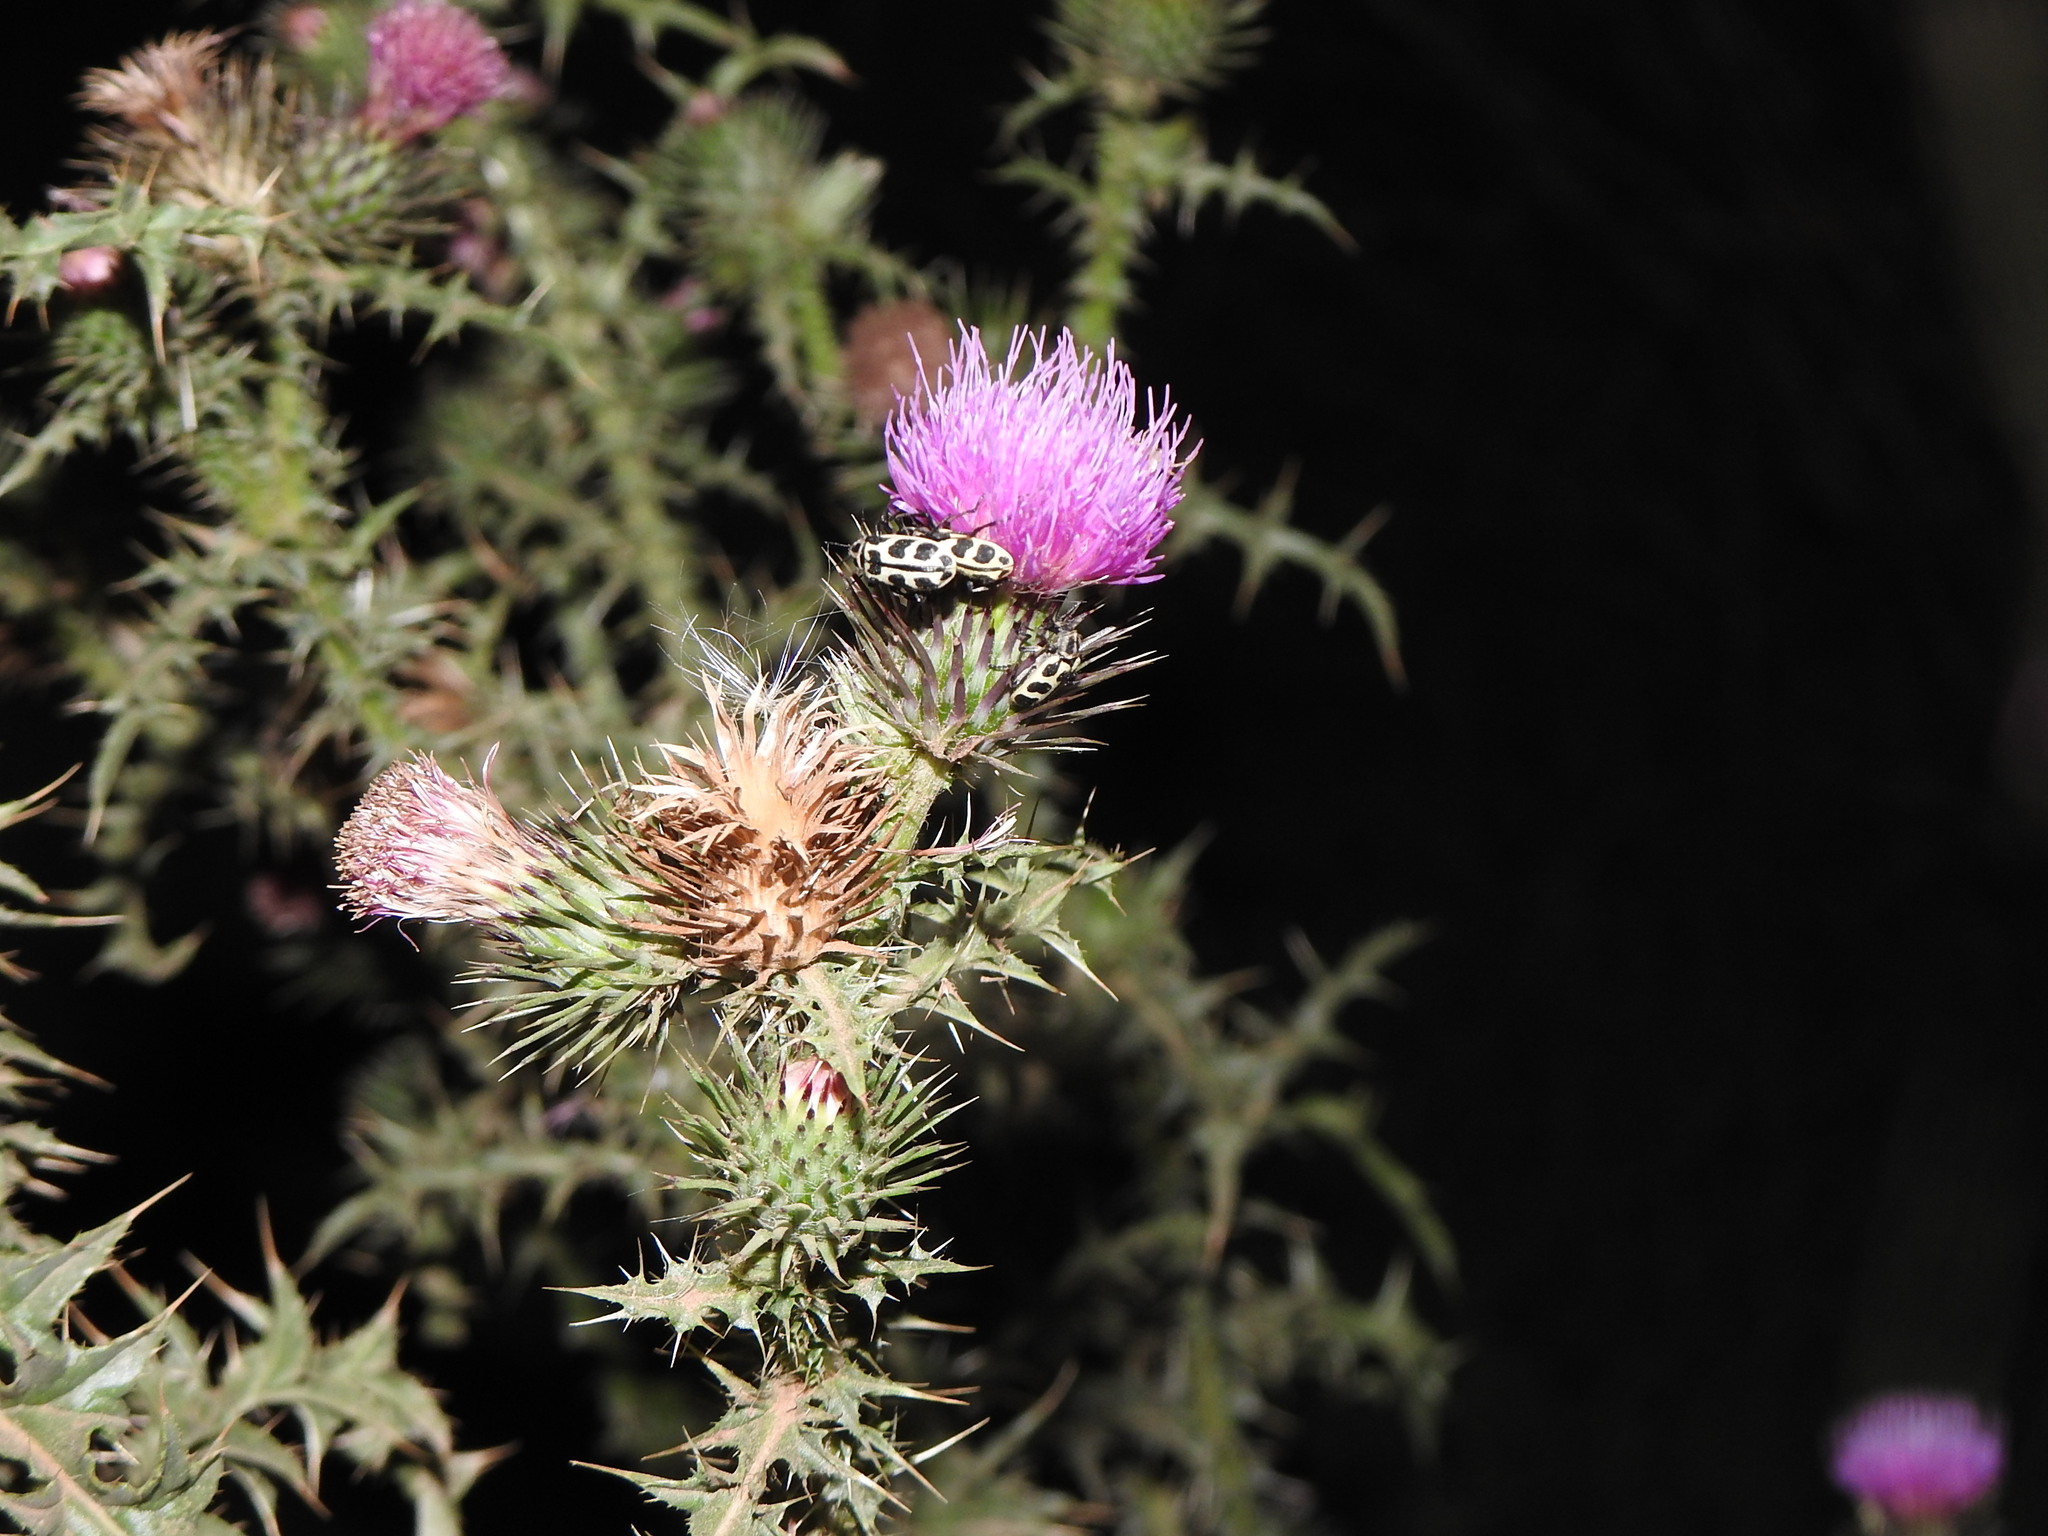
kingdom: Animalia
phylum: Arthropoda
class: Insecta
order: Coleoptera
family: Melyridae
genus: Astylus
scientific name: Astylus atromaculatus
